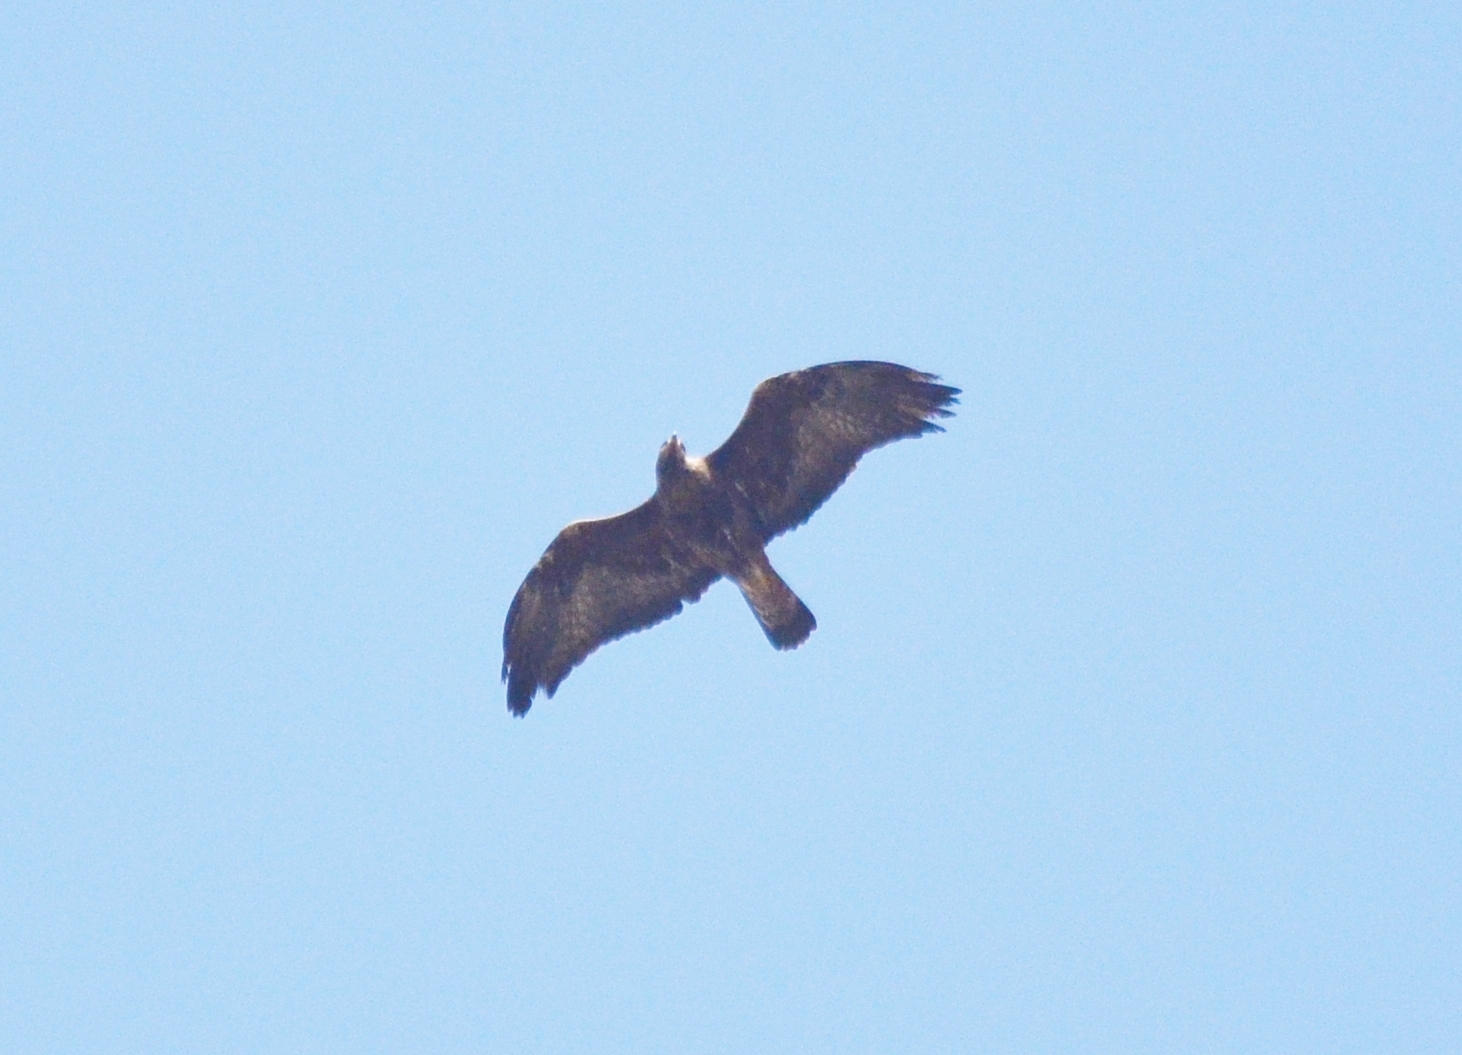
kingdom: Animalia
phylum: Chordata
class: Aves
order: Accipitriformes
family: Accipitridae
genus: Aquila
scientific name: Aquila chrysaetos
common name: Golden eagle
